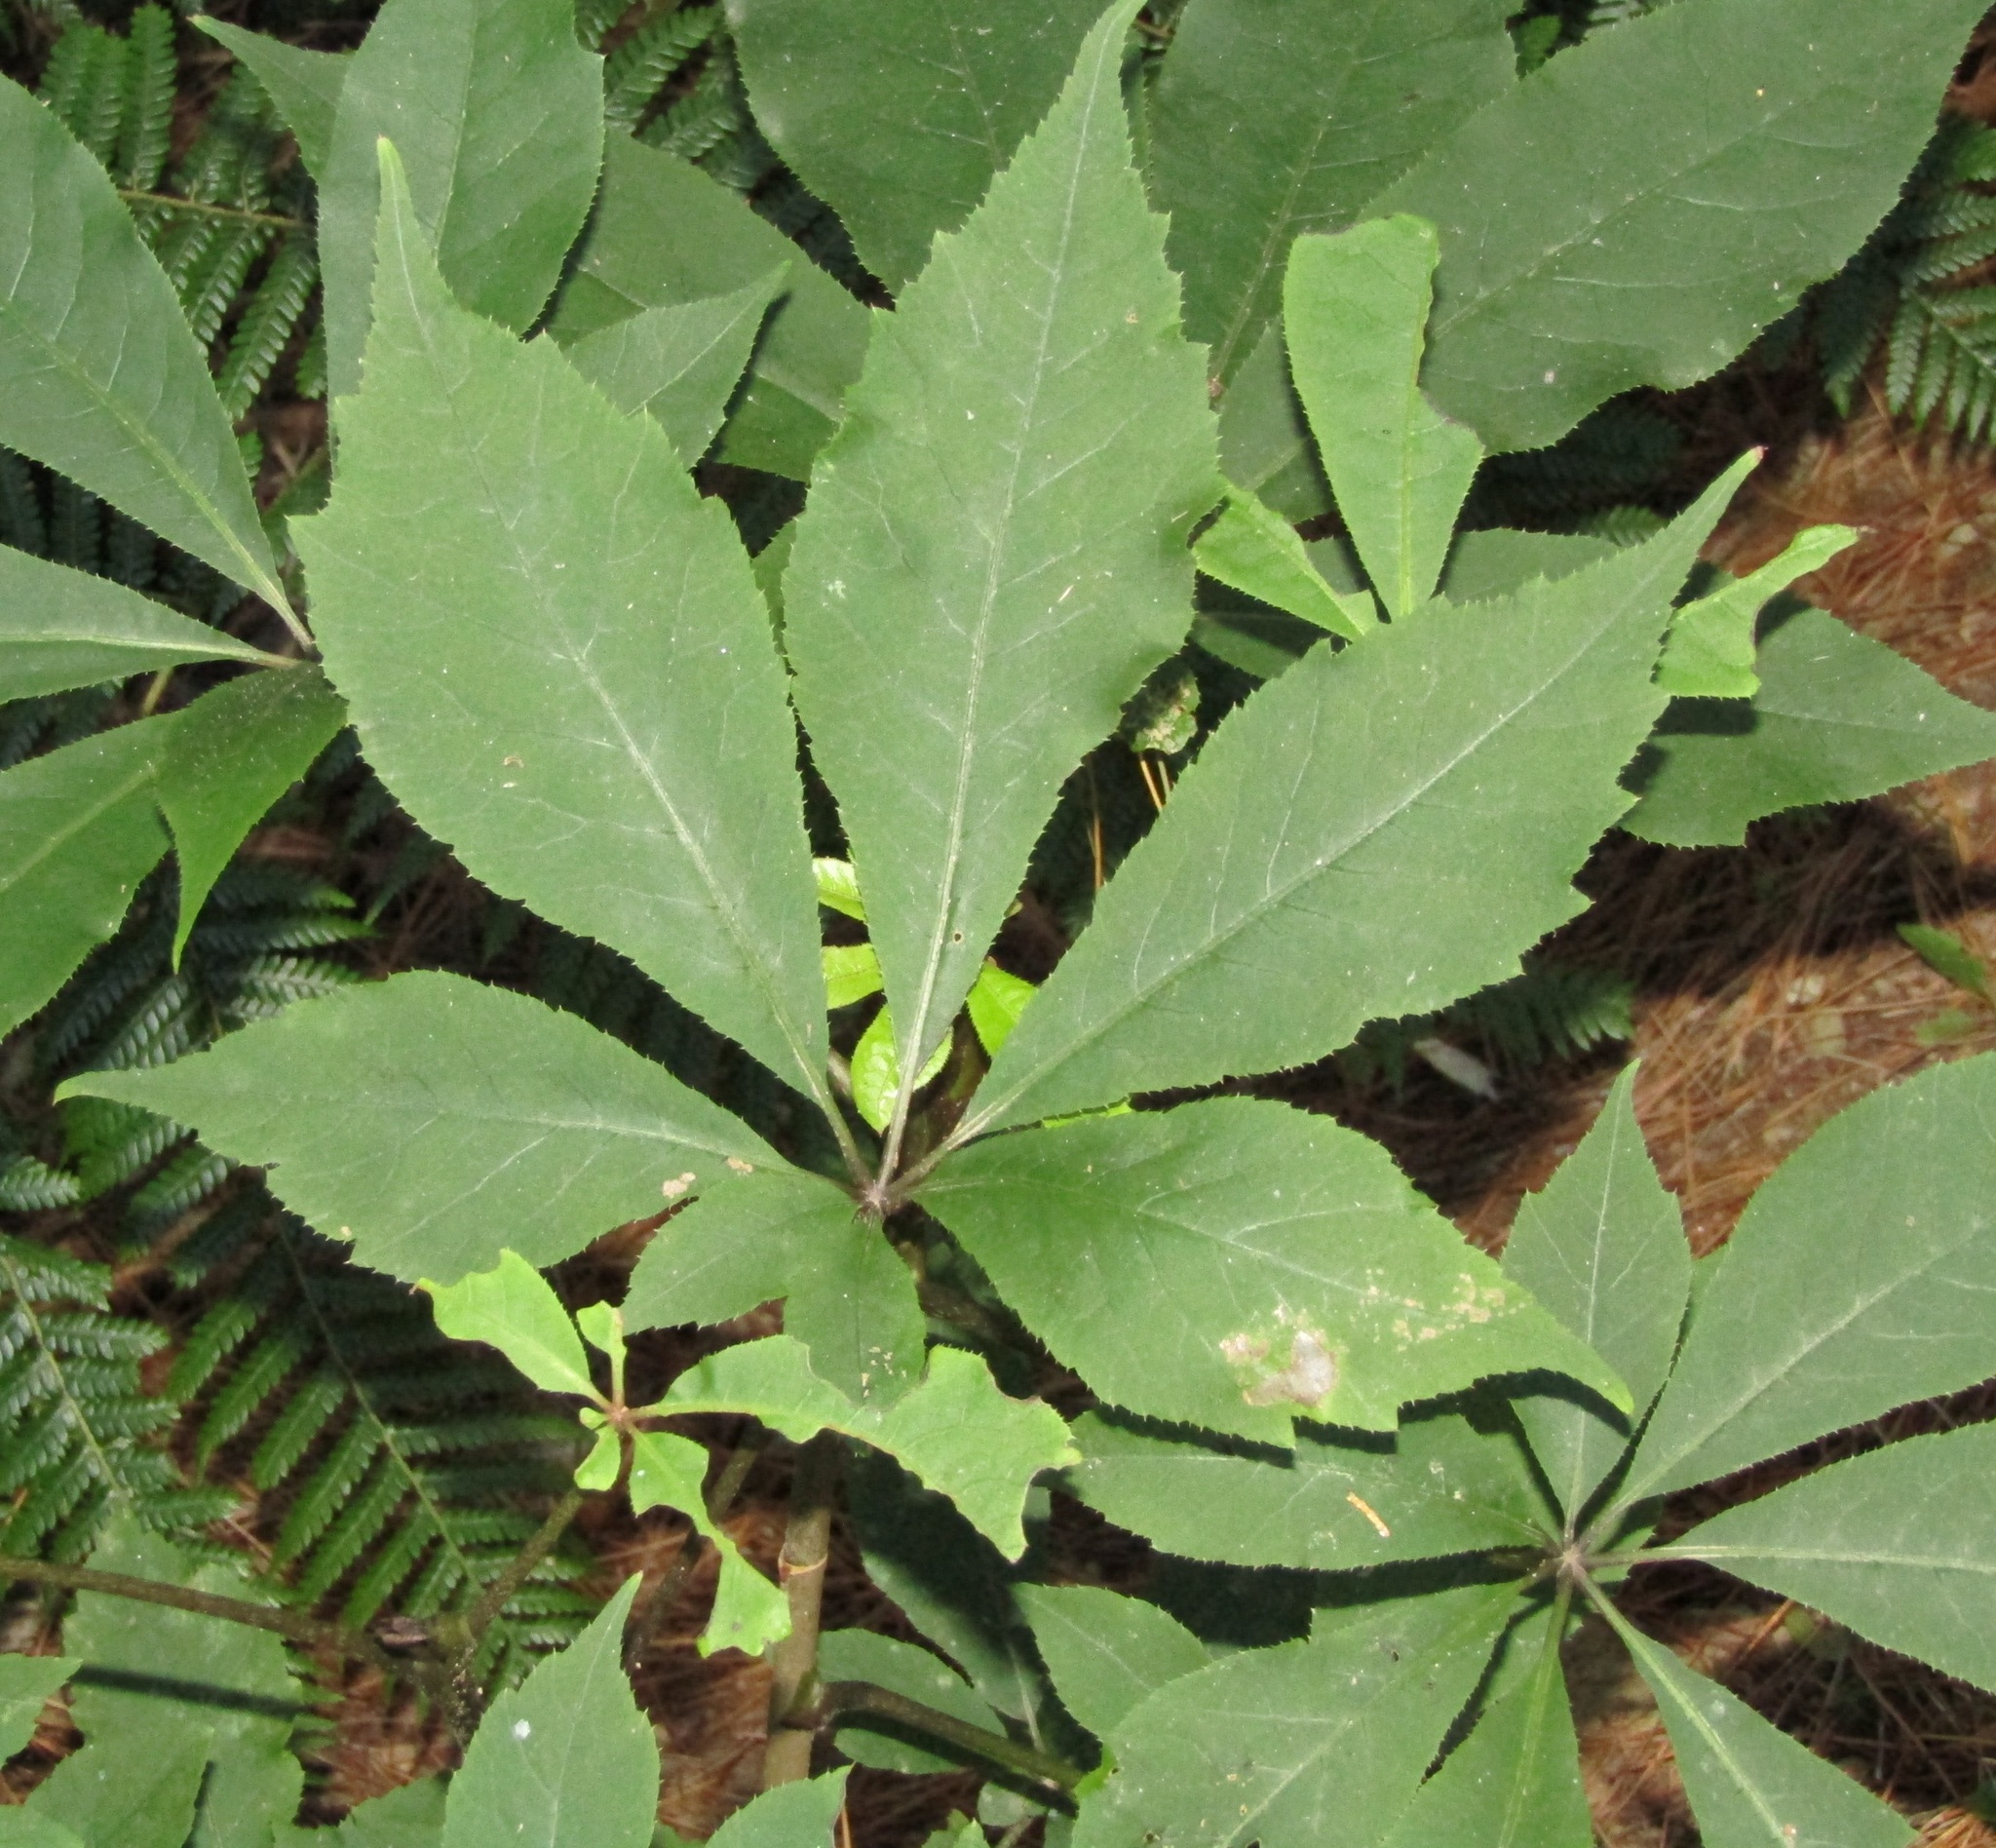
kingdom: Plantae
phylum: Tracheophyta
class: Magnoliopsida
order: Apiales
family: Araliaceae
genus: Schefflera
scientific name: Schefflera digitata
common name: Pate
